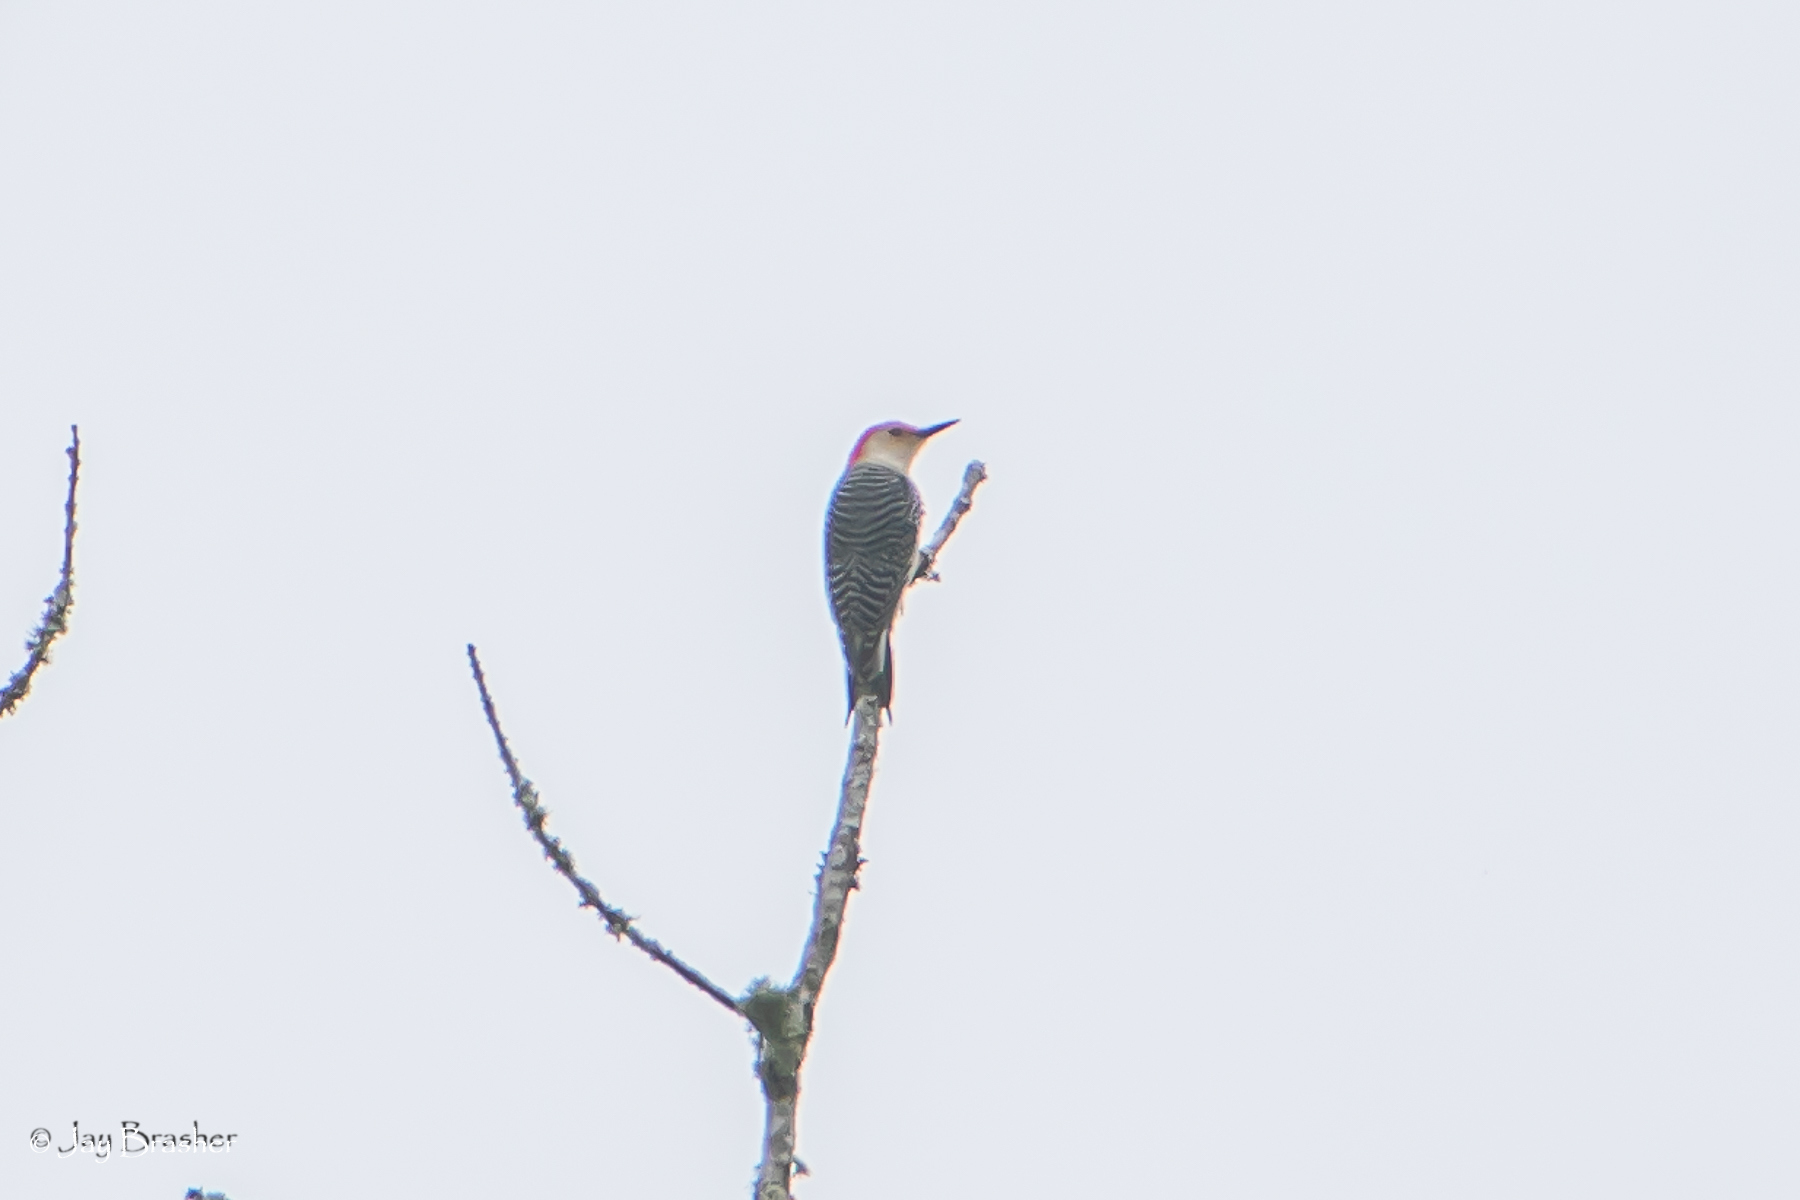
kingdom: Animalia
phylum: Chordata
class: Aves
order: Piciformes
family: Picidae
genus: Melanerpes
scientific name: Melanerpes carolinus
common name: Red-bellied woodpecker
